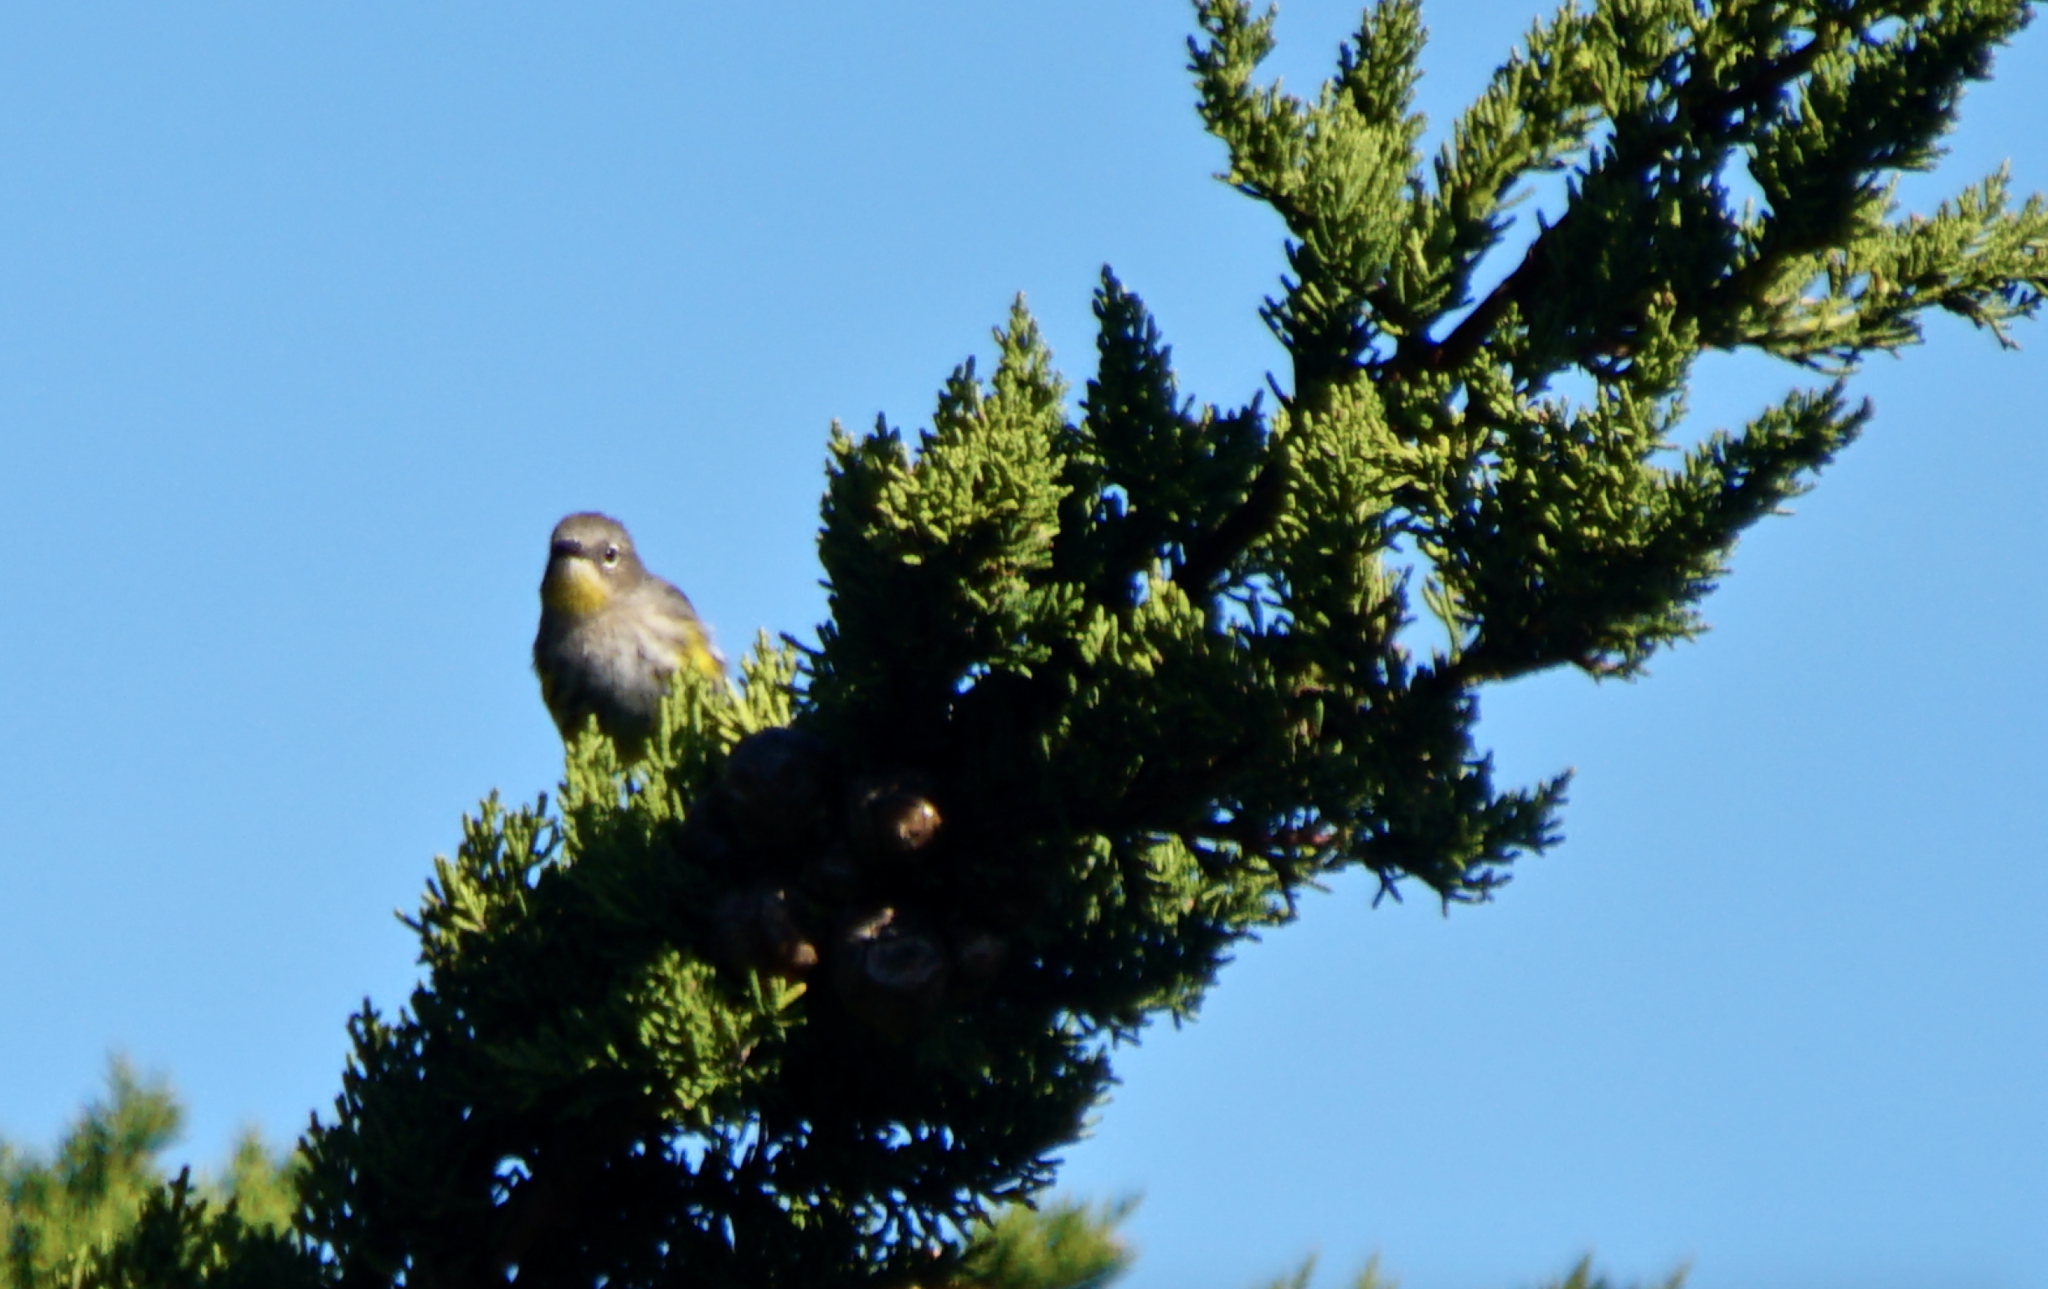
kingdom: Animalia
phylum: Chordata
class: Aves
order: Passeriformes
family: Parulidae
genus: Setophaga
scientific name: Setophaga coronata
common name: Myrtle warbler
